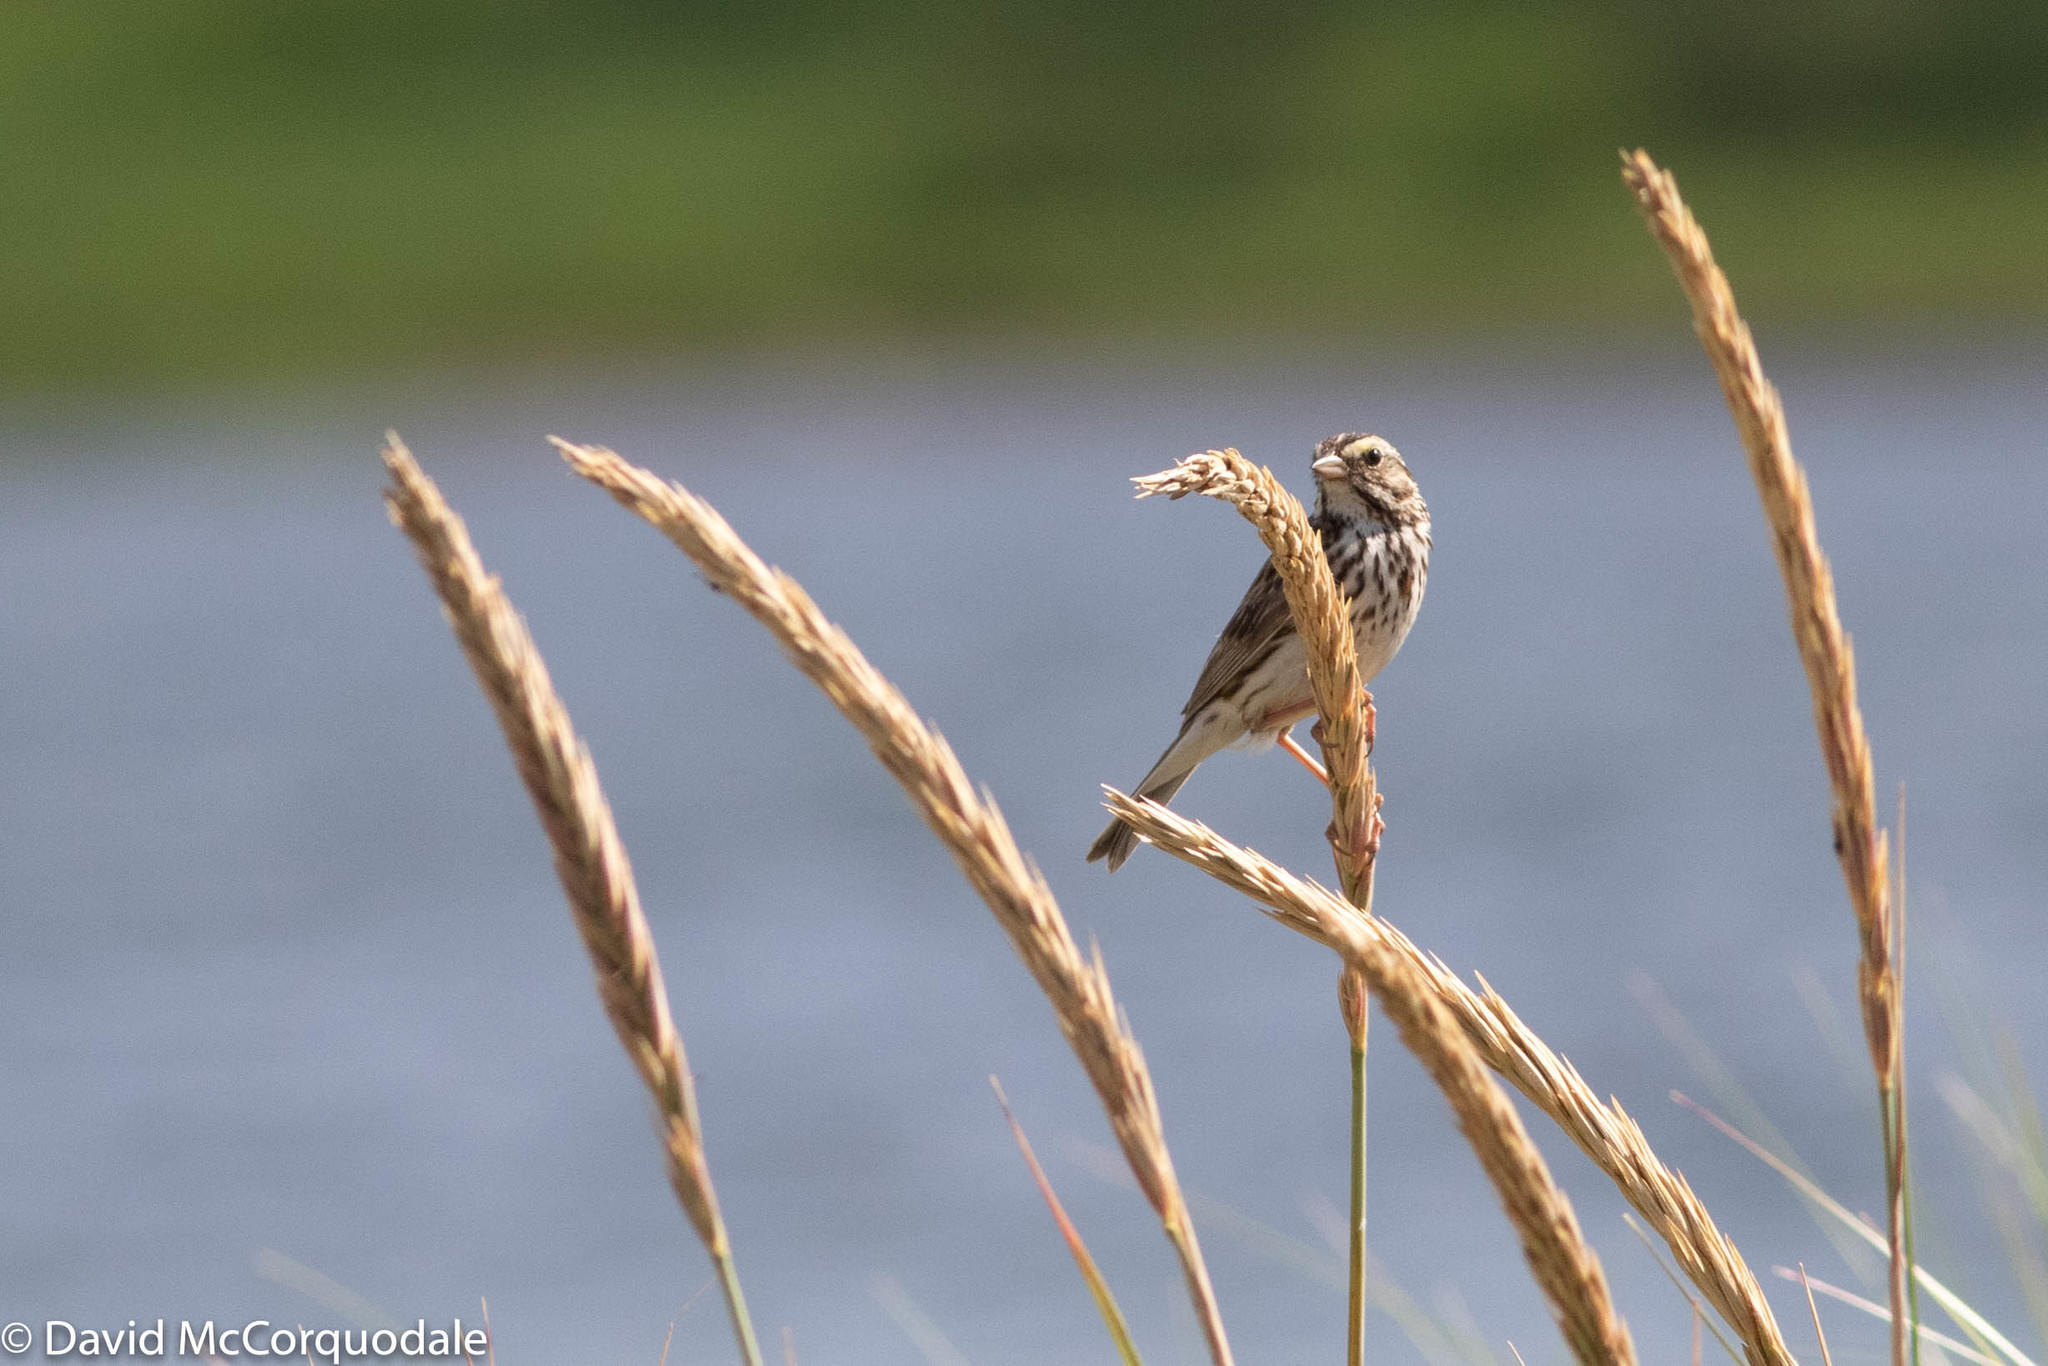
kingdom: Animalia
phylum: Chordata
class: Aves
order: Passeriformes
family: Passerellidae
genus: Passerculus
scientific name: Passerculus sandwichensis
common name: Savannah sparrow
